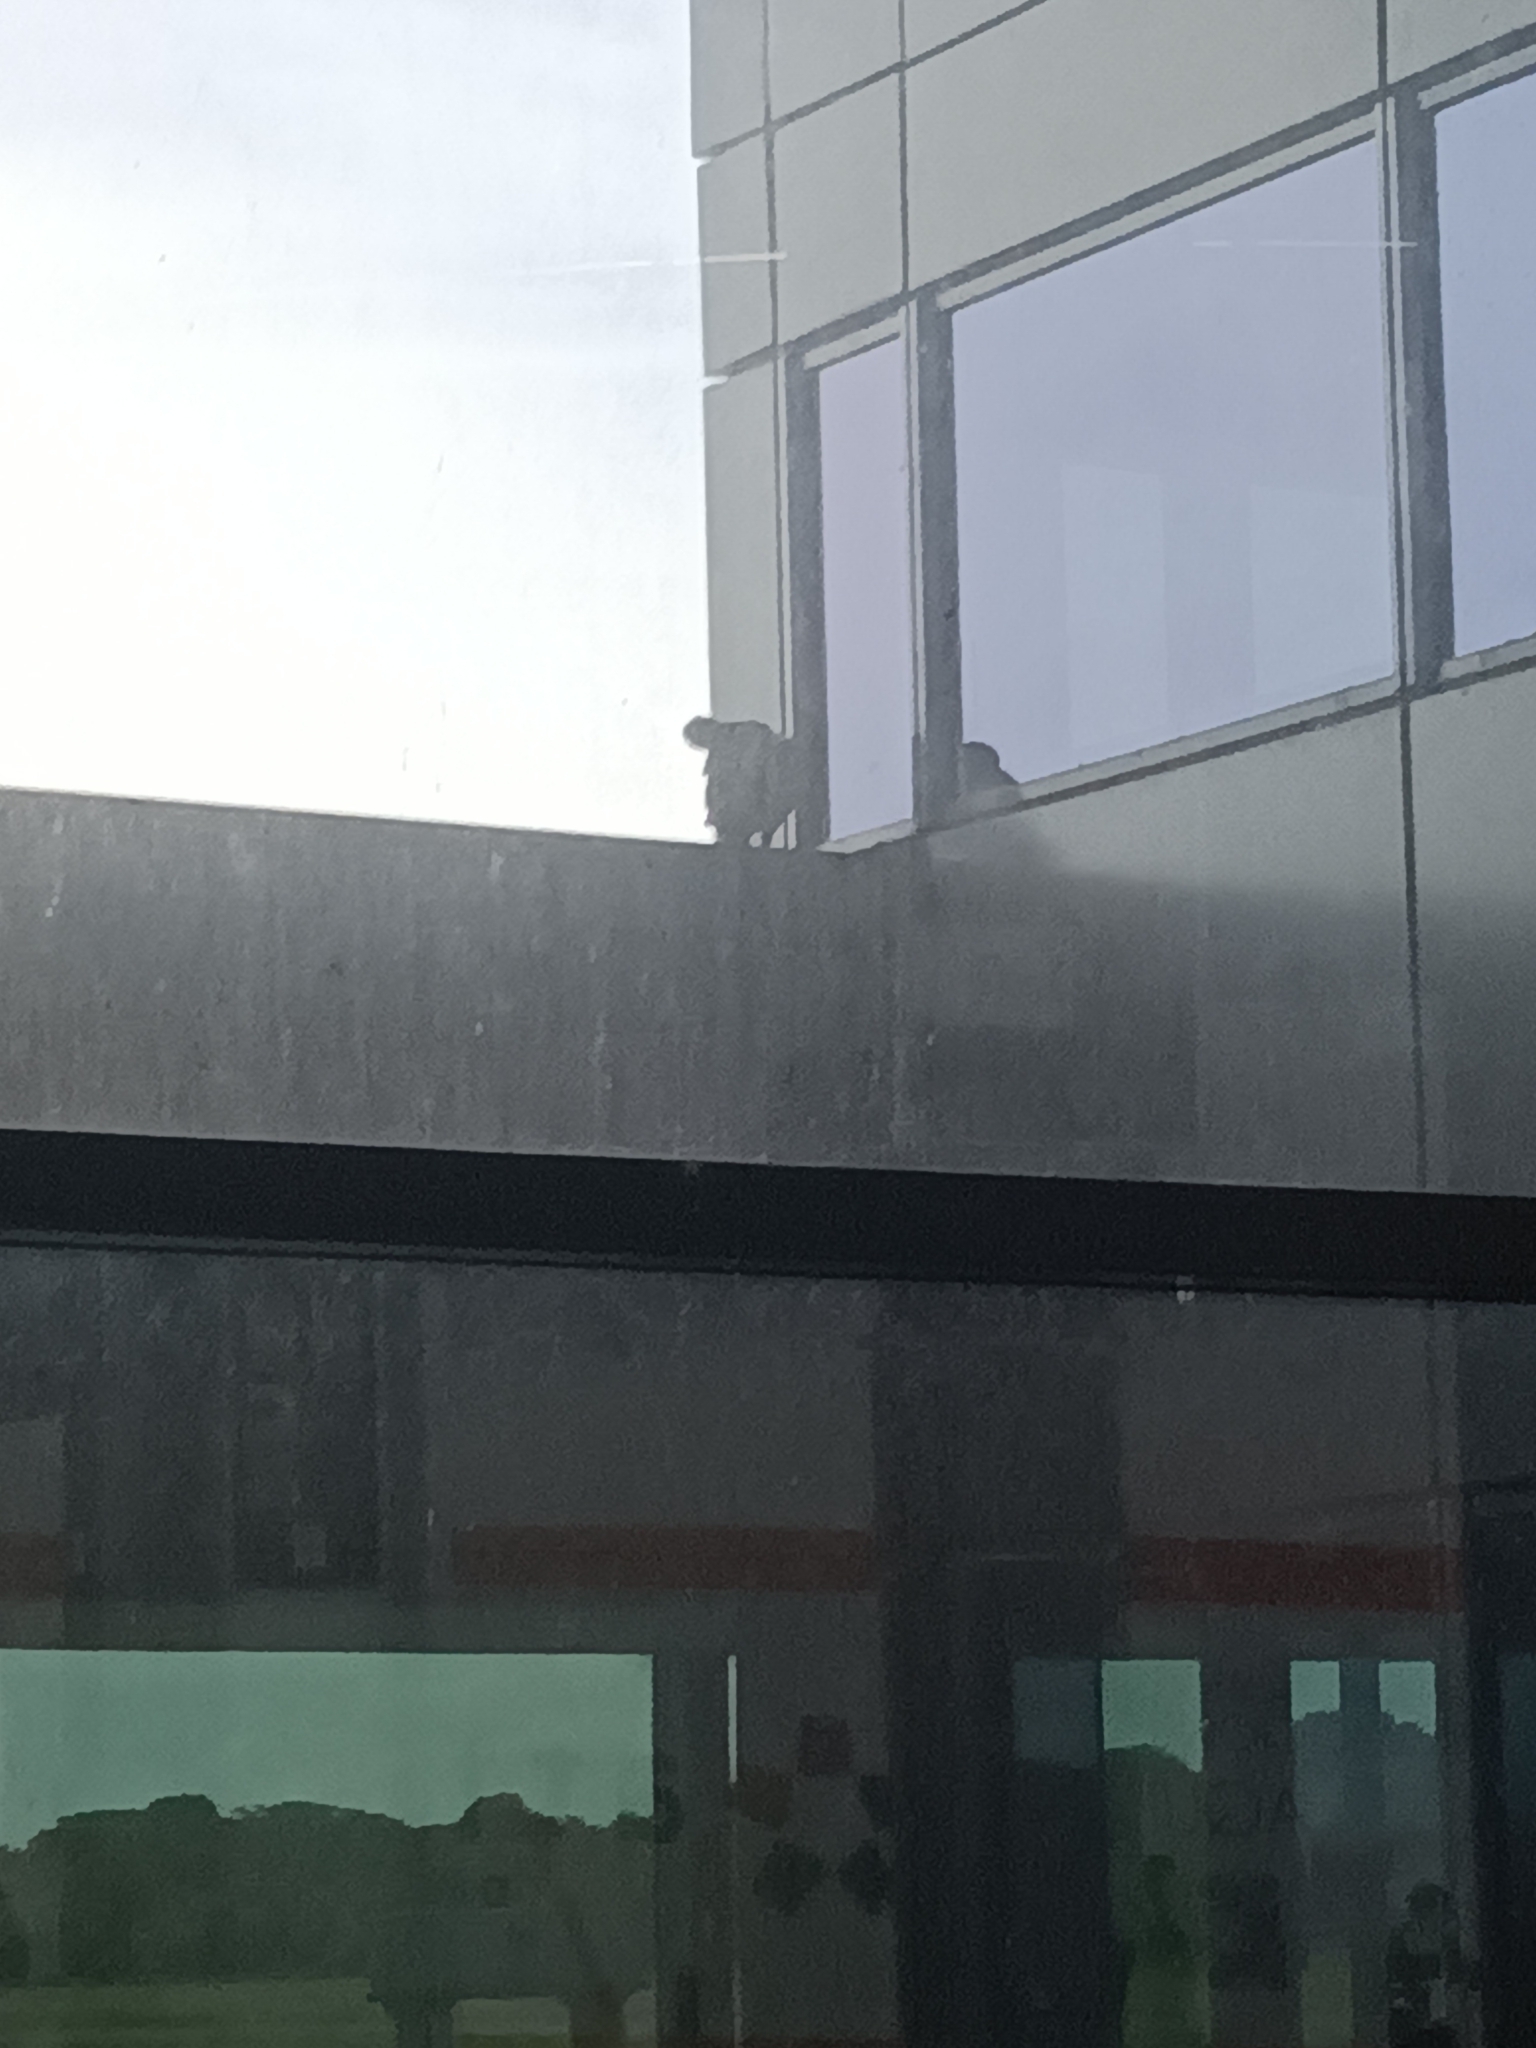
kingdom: Animalia
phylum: Chordata
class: Aves
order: Accipitriformes
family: Cathartidae
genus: Coragyps
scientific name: Coragyps atratus
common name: Black vulture
